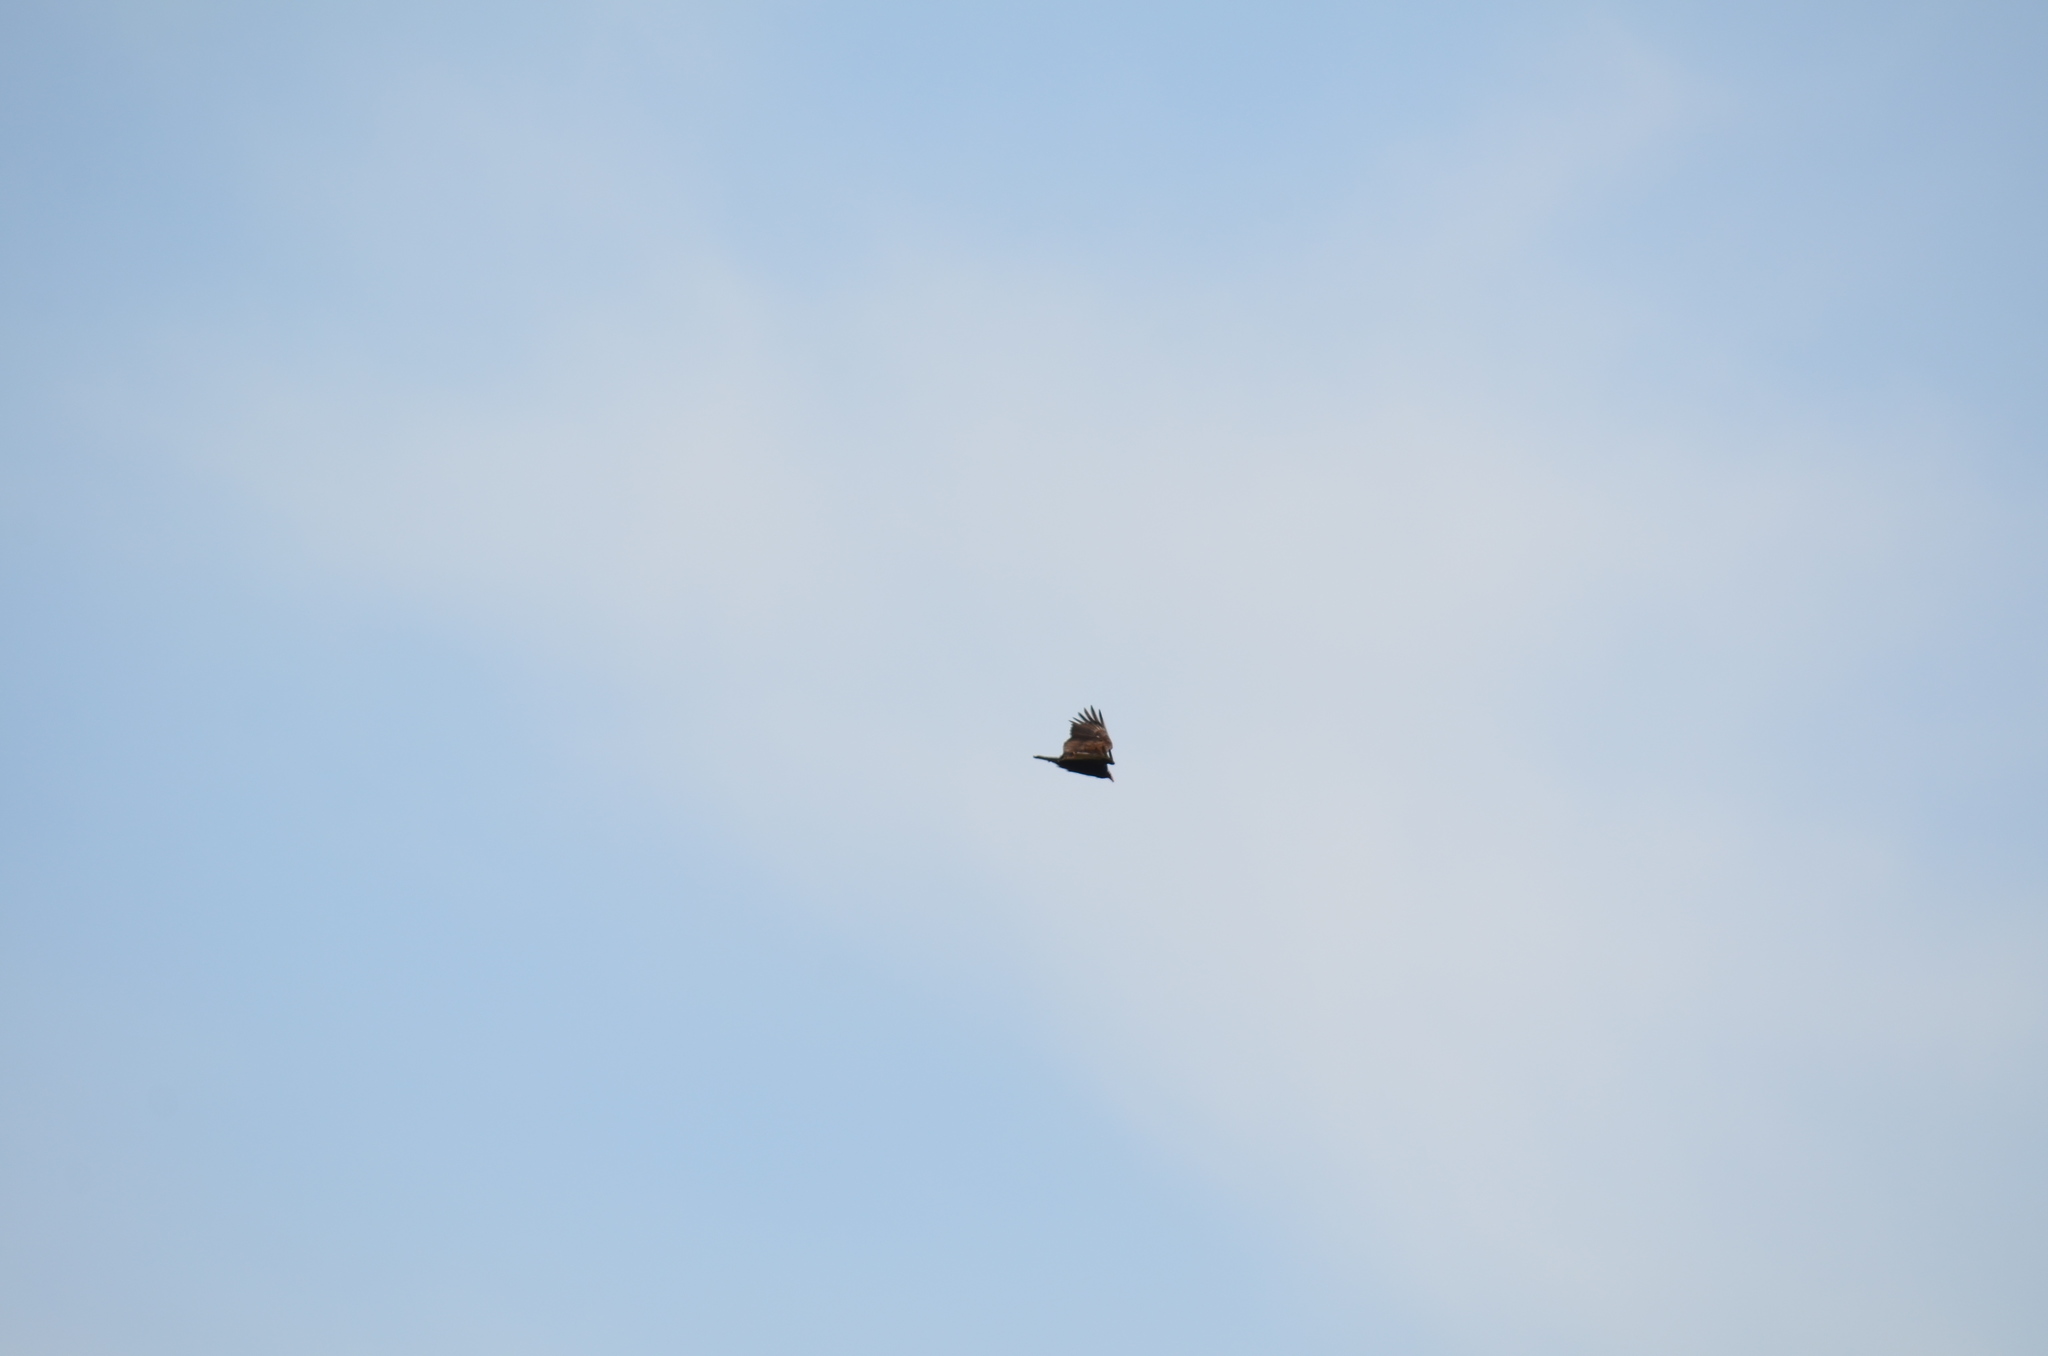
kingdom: Animalia
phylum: Chordata
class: Aves
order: Accipitriformes
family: Cathartidae
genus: Cathartes
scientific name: Cathartes aura
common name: Turkey vulture
